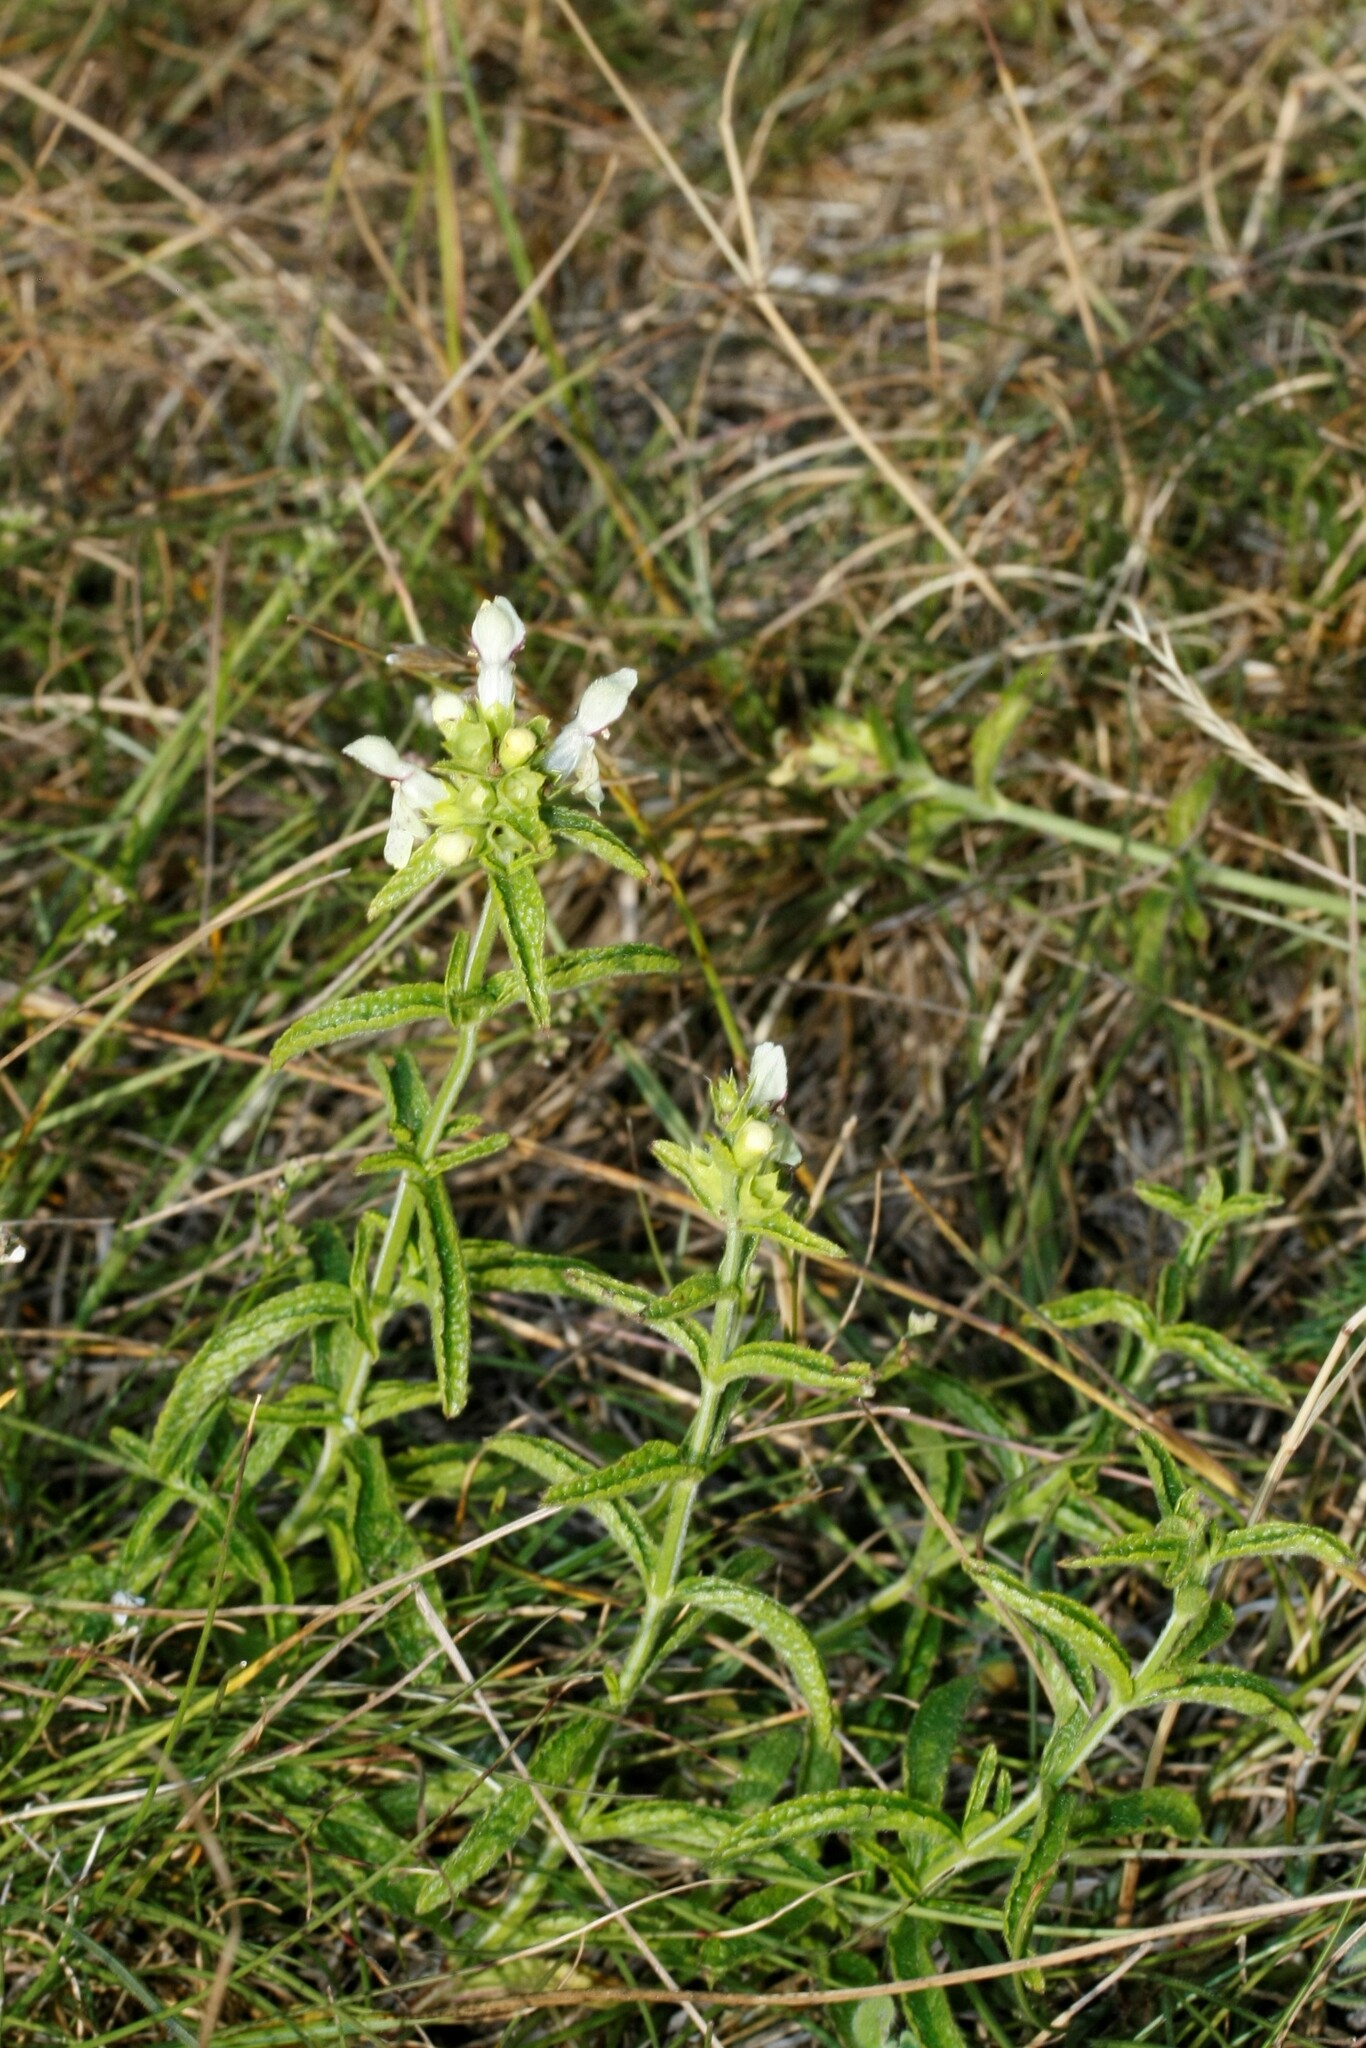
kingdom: Plantae
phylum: Tracheophyta
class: Magnoliopsida
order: Lamiales
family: Lamiaceae
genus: Stachys
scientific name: Stachys recta
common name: Perennial yellow-woundwort
